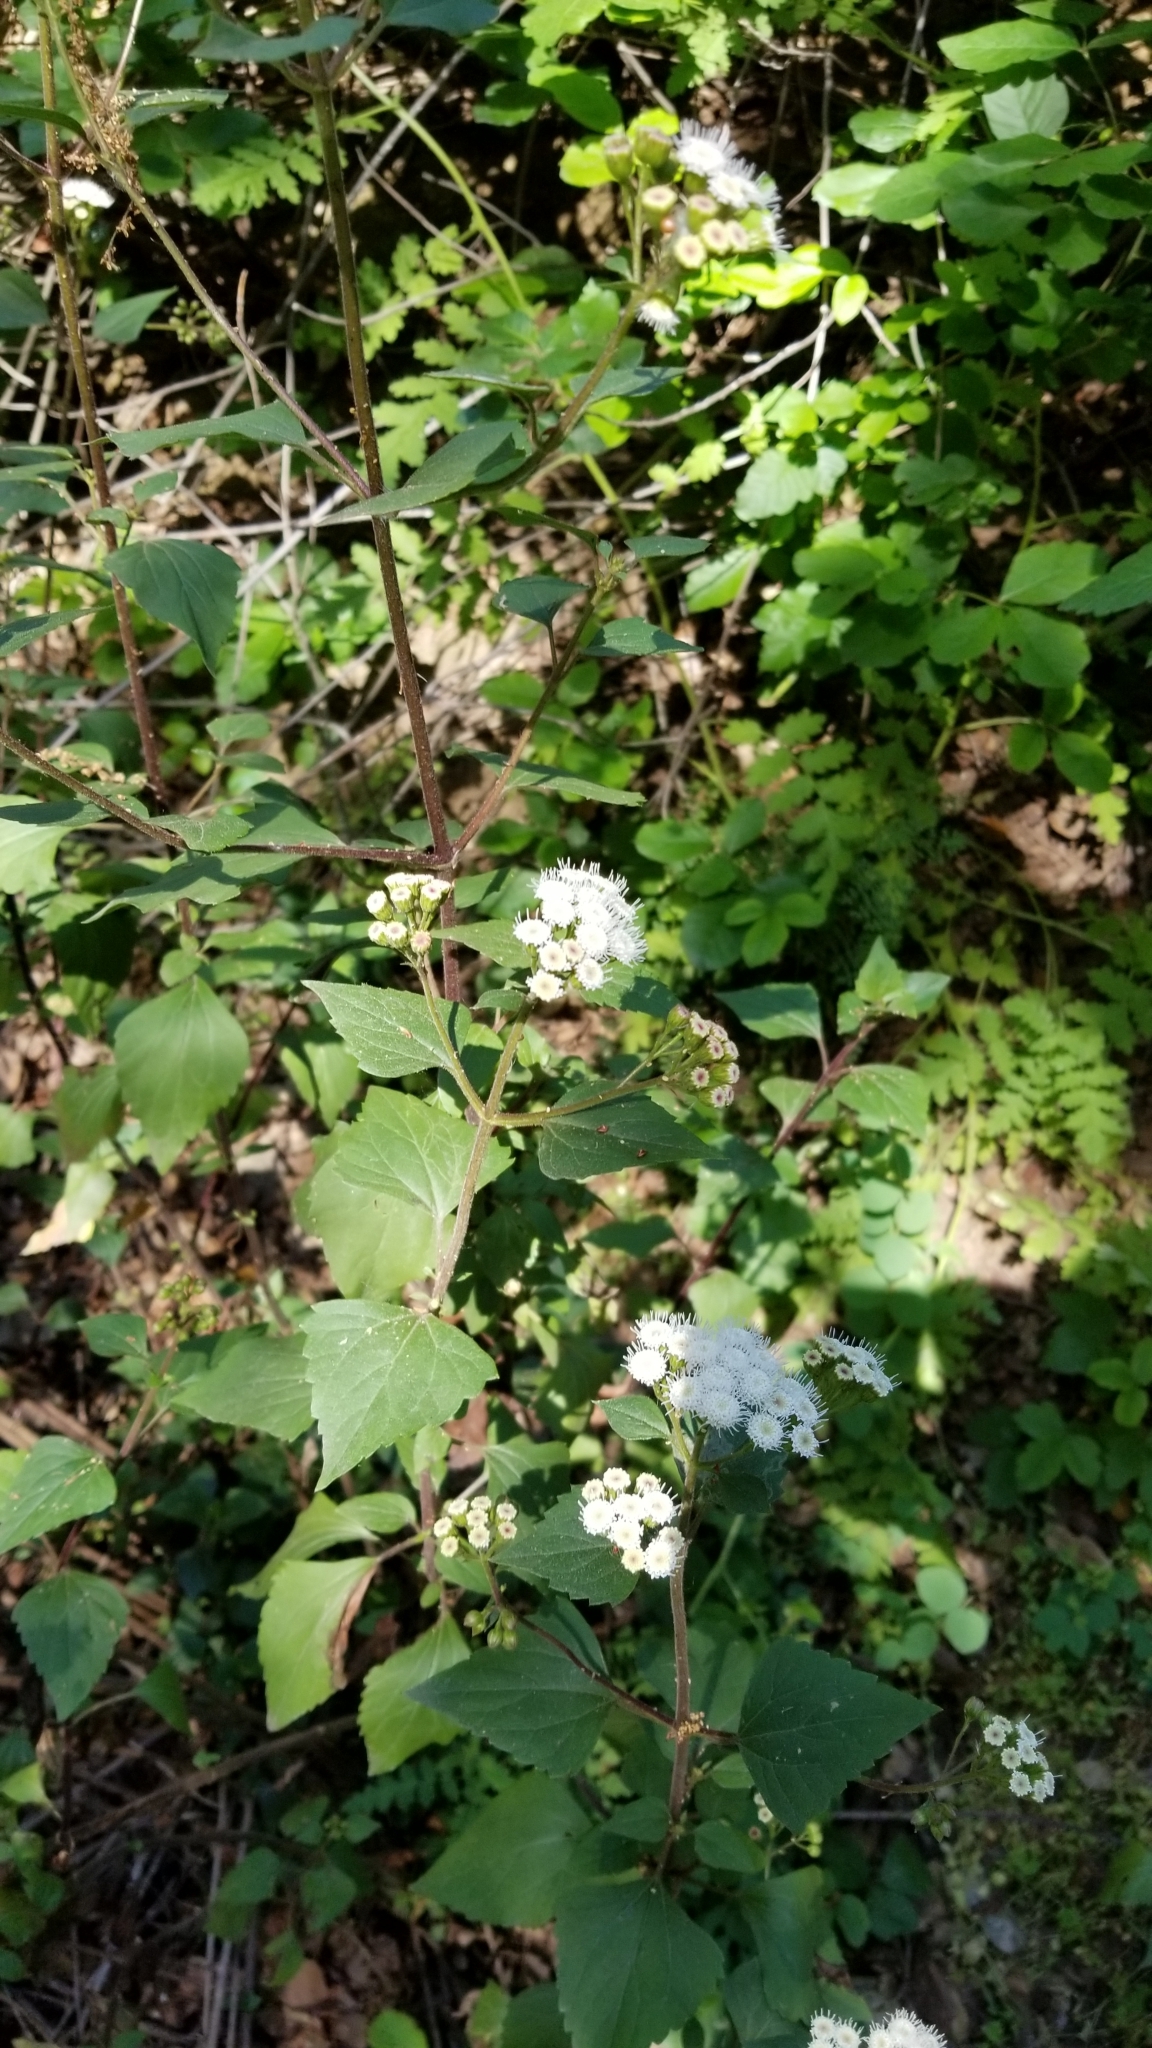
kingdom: Plantae
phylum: Tracheophyta
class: Magnoliopsida
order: Asterales
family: Asteraceae
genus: Ageratina
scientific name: Ageratina adenophora
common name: Sticky snakeroot
